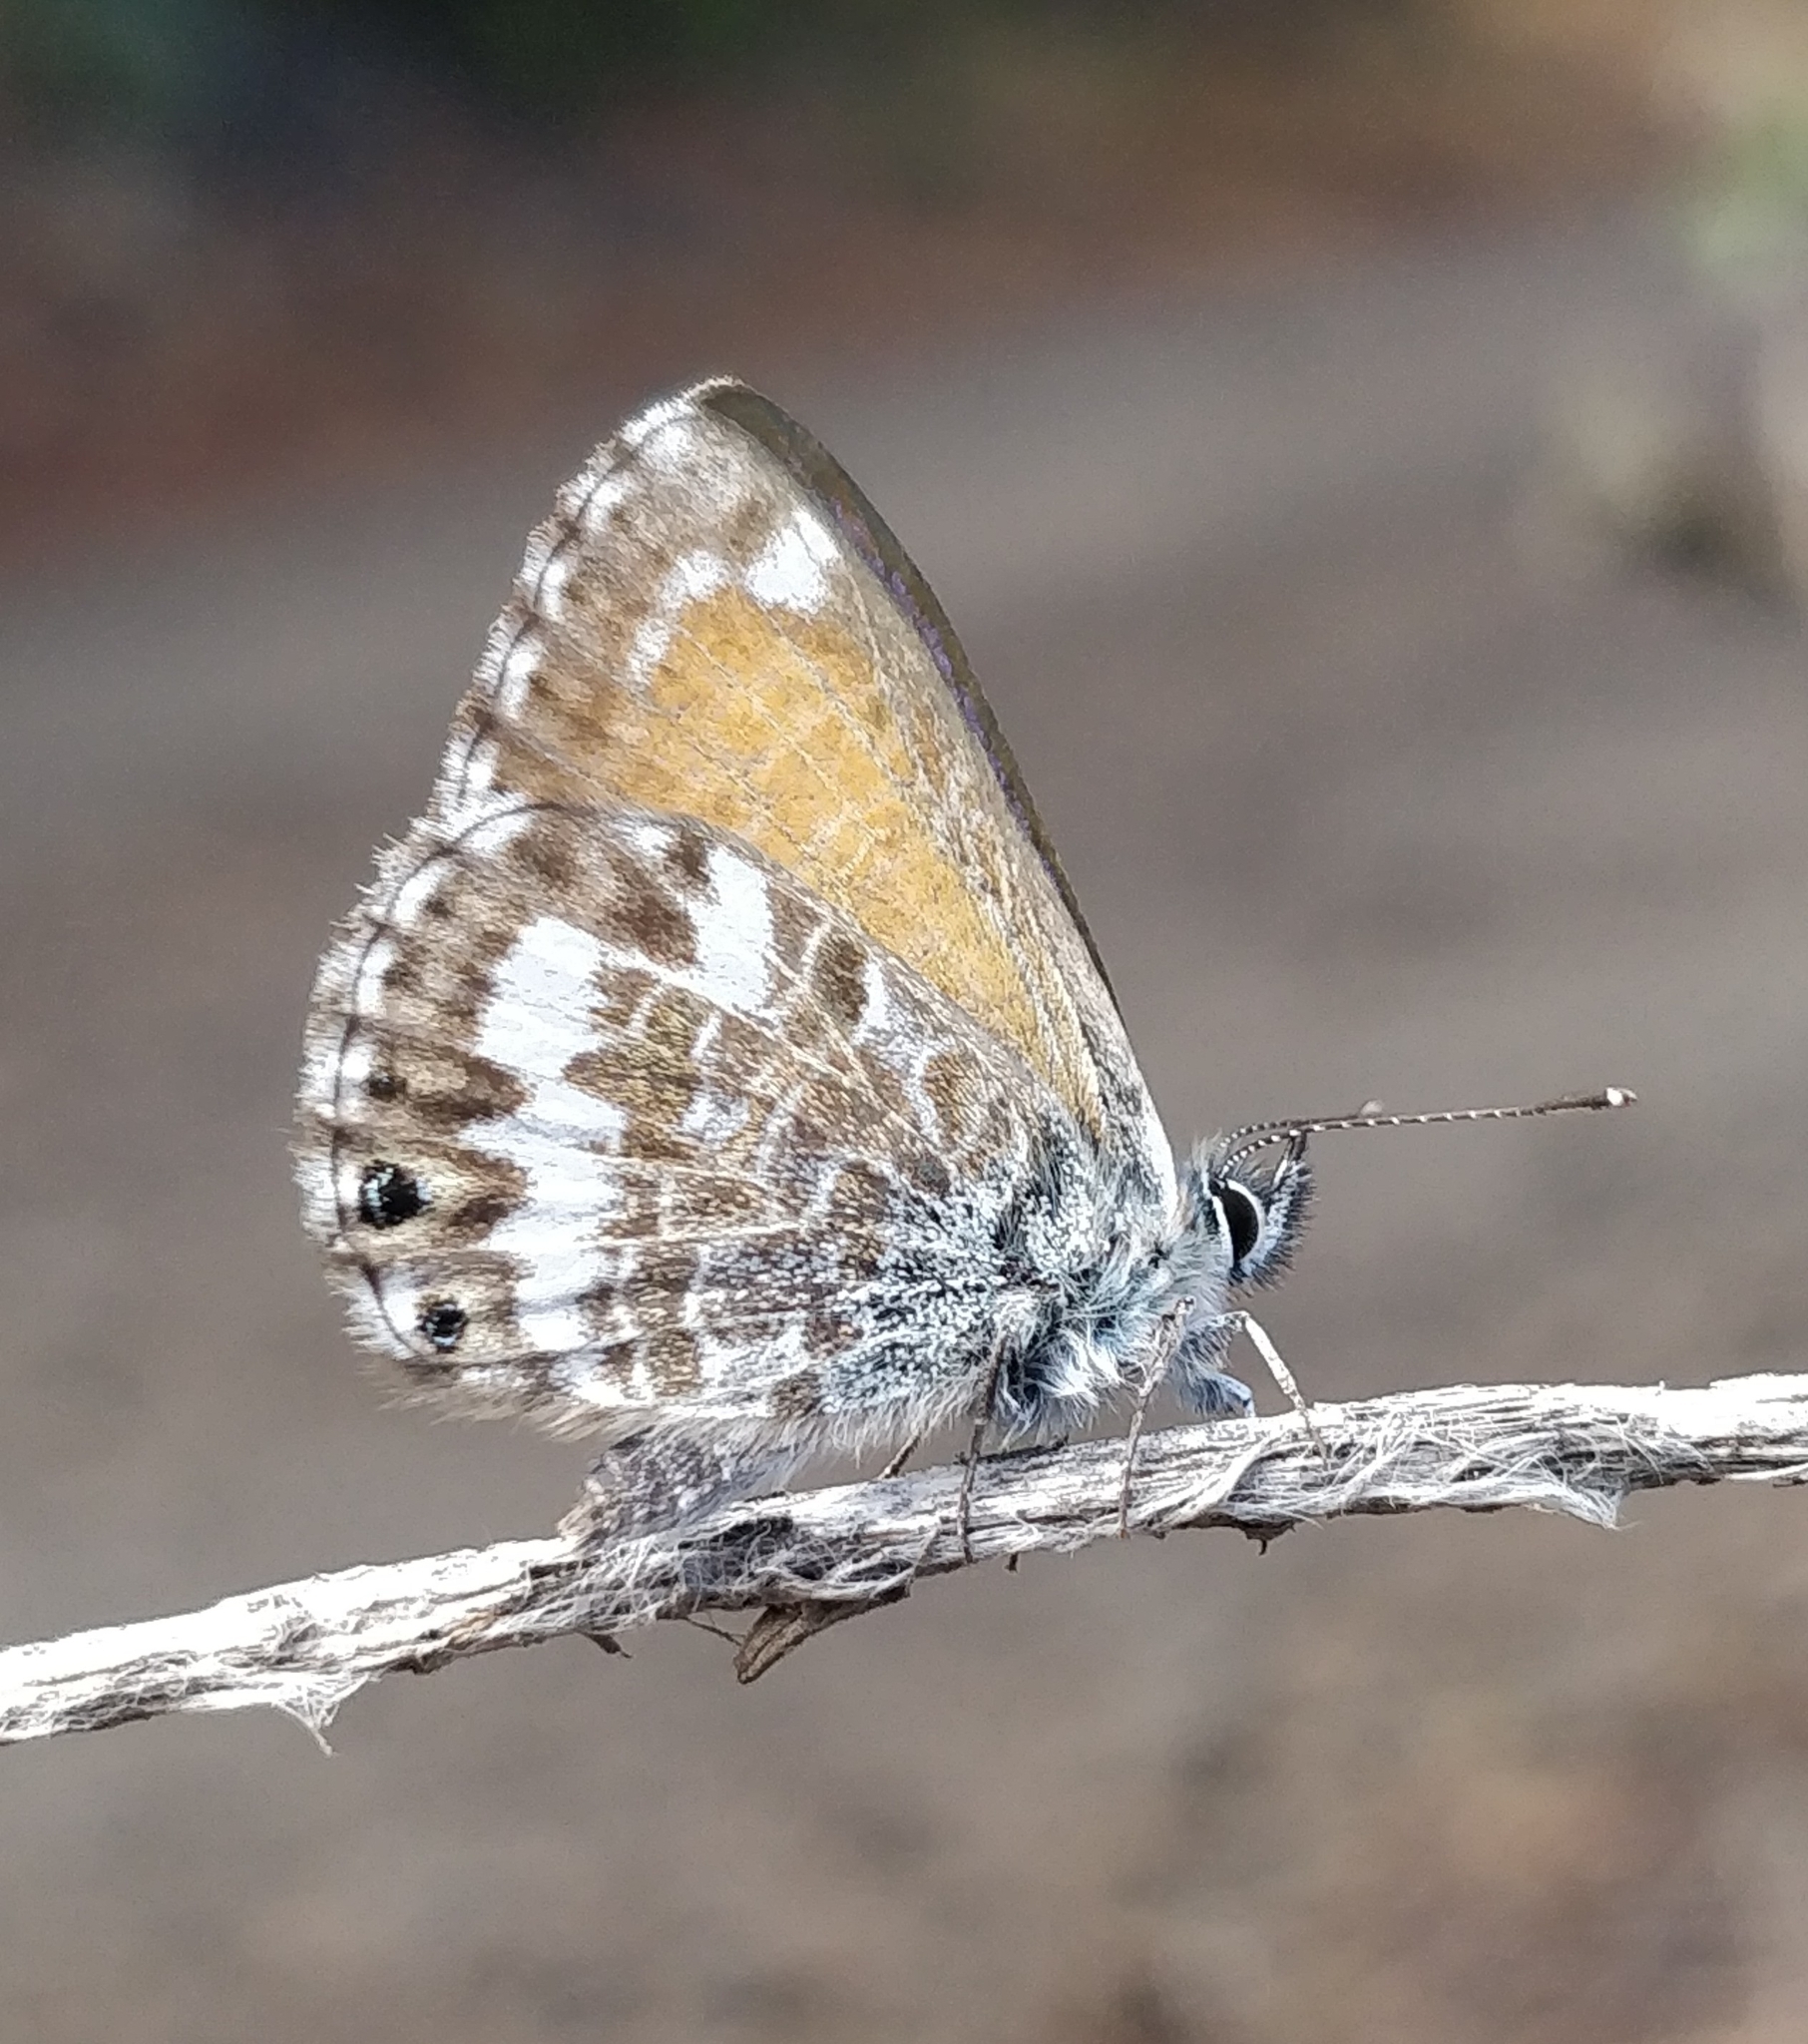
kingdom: Animalia
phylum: Arthropoda
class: Insecta
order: Lepidoptera
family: Lycaenidae
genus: Cyclyrius
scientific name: Cyclyrius webbianus
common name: Canary blue
